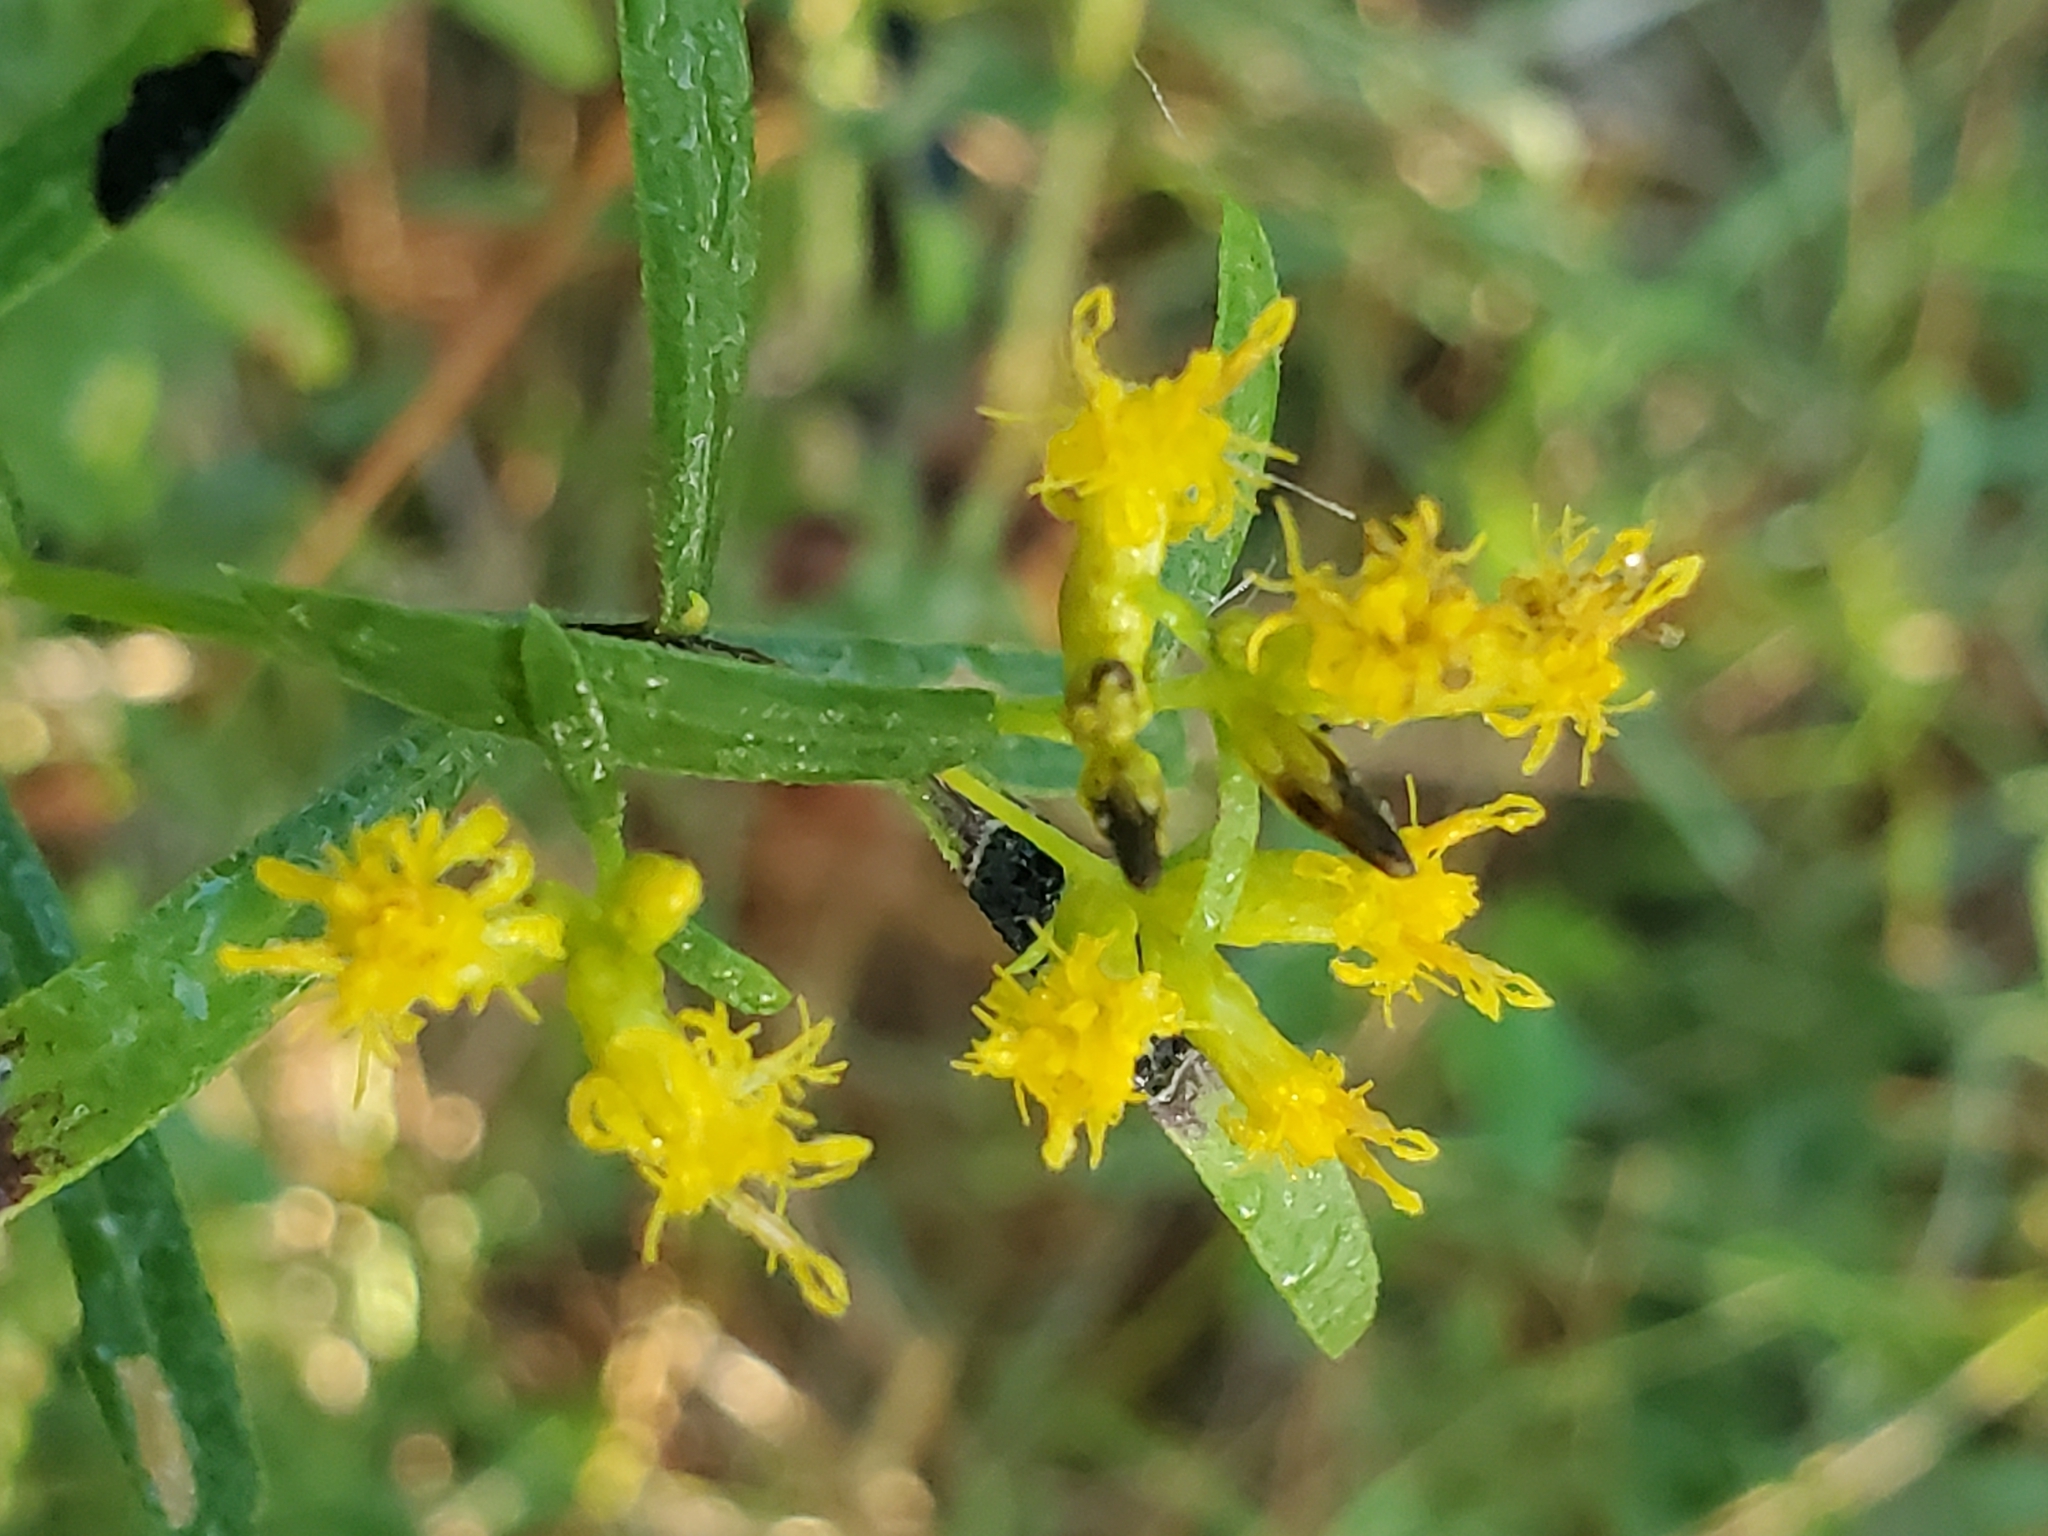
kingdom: Plantae
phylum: Tracheophyta
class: Magnoliopsida
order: Asterales
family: Asteraceae
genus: Euthamia
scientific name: Euthamia leptocephala
